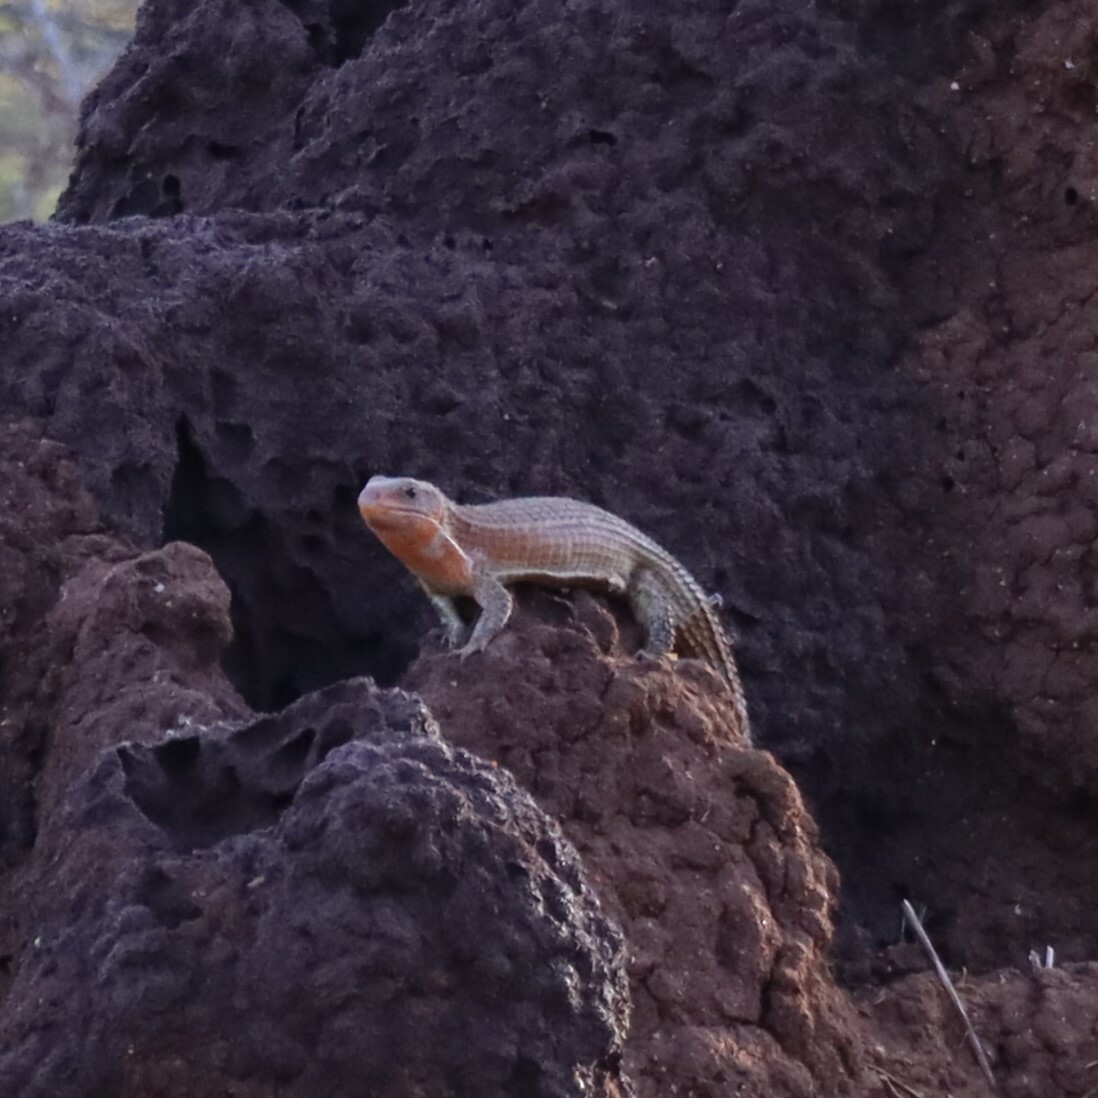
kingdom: Animalia
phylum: Chordata
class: Squamata
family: Gerrhosauridae
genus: Broadleysaurus
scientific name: Broadleysaurus major
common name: Rough-scaled plated lizard
